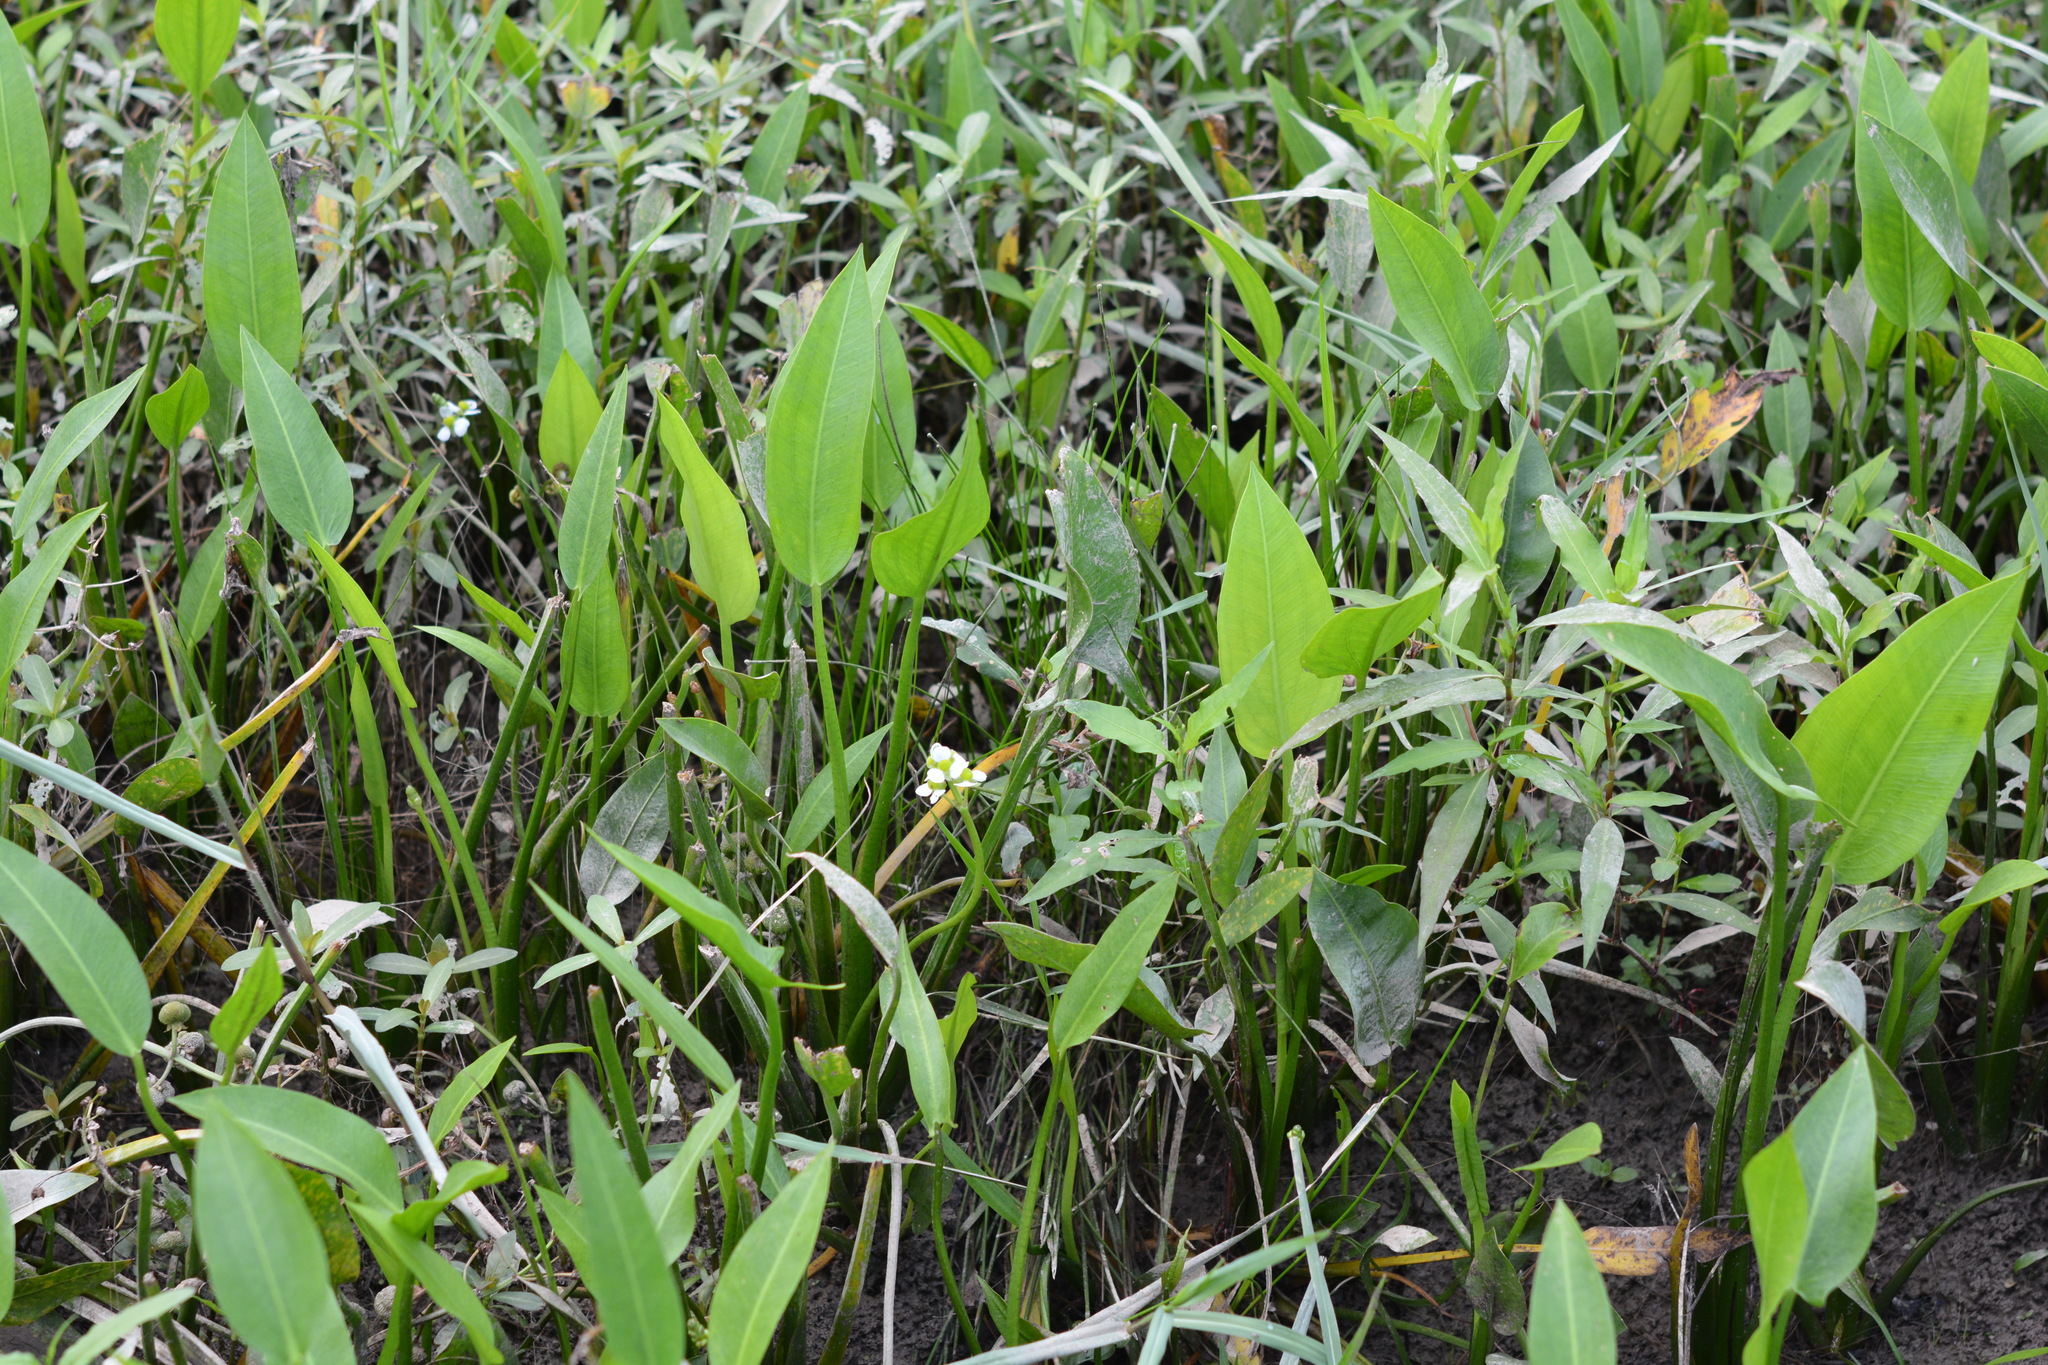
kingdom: Plantae
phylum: Tracheophyta
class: Liliopsida
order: Alismatales
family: Alismataceae
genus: Sagittaria
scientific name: Sagittaria platyphylla
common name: Broad-leaf arrowhead
